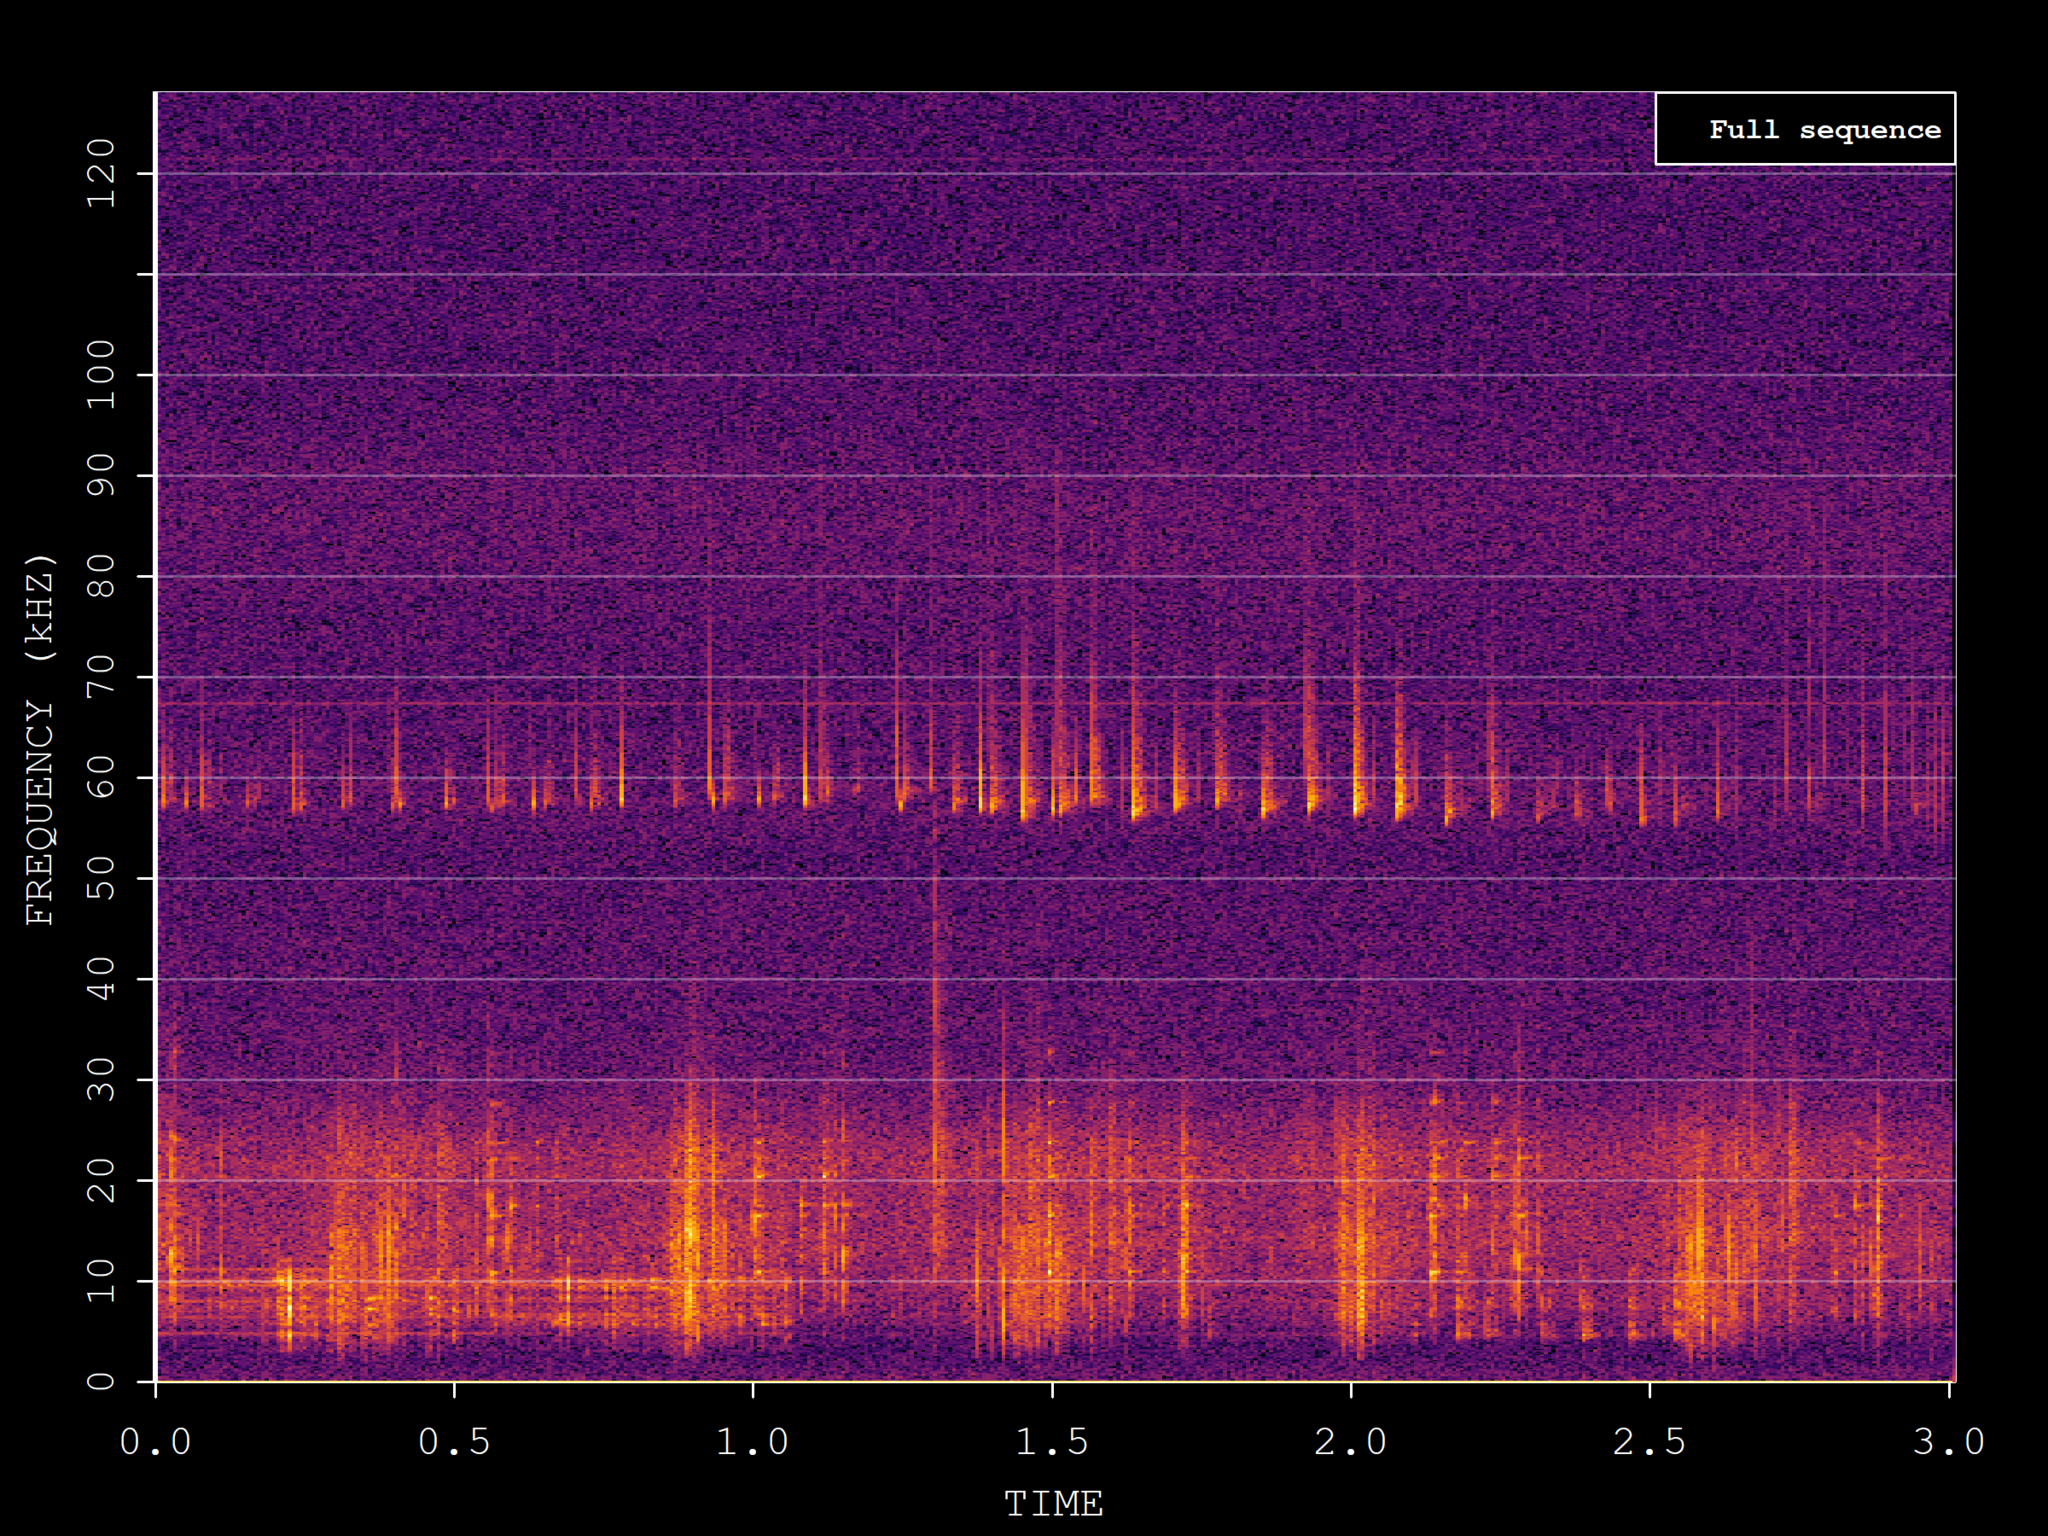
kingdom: Animalia
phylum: Chordata
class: Mammalia
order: Chiroptera
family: Vespertilionidae
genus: Pipistrellus
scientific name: Pipistrellus pygmaeus
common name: Soprano pipistrelle
